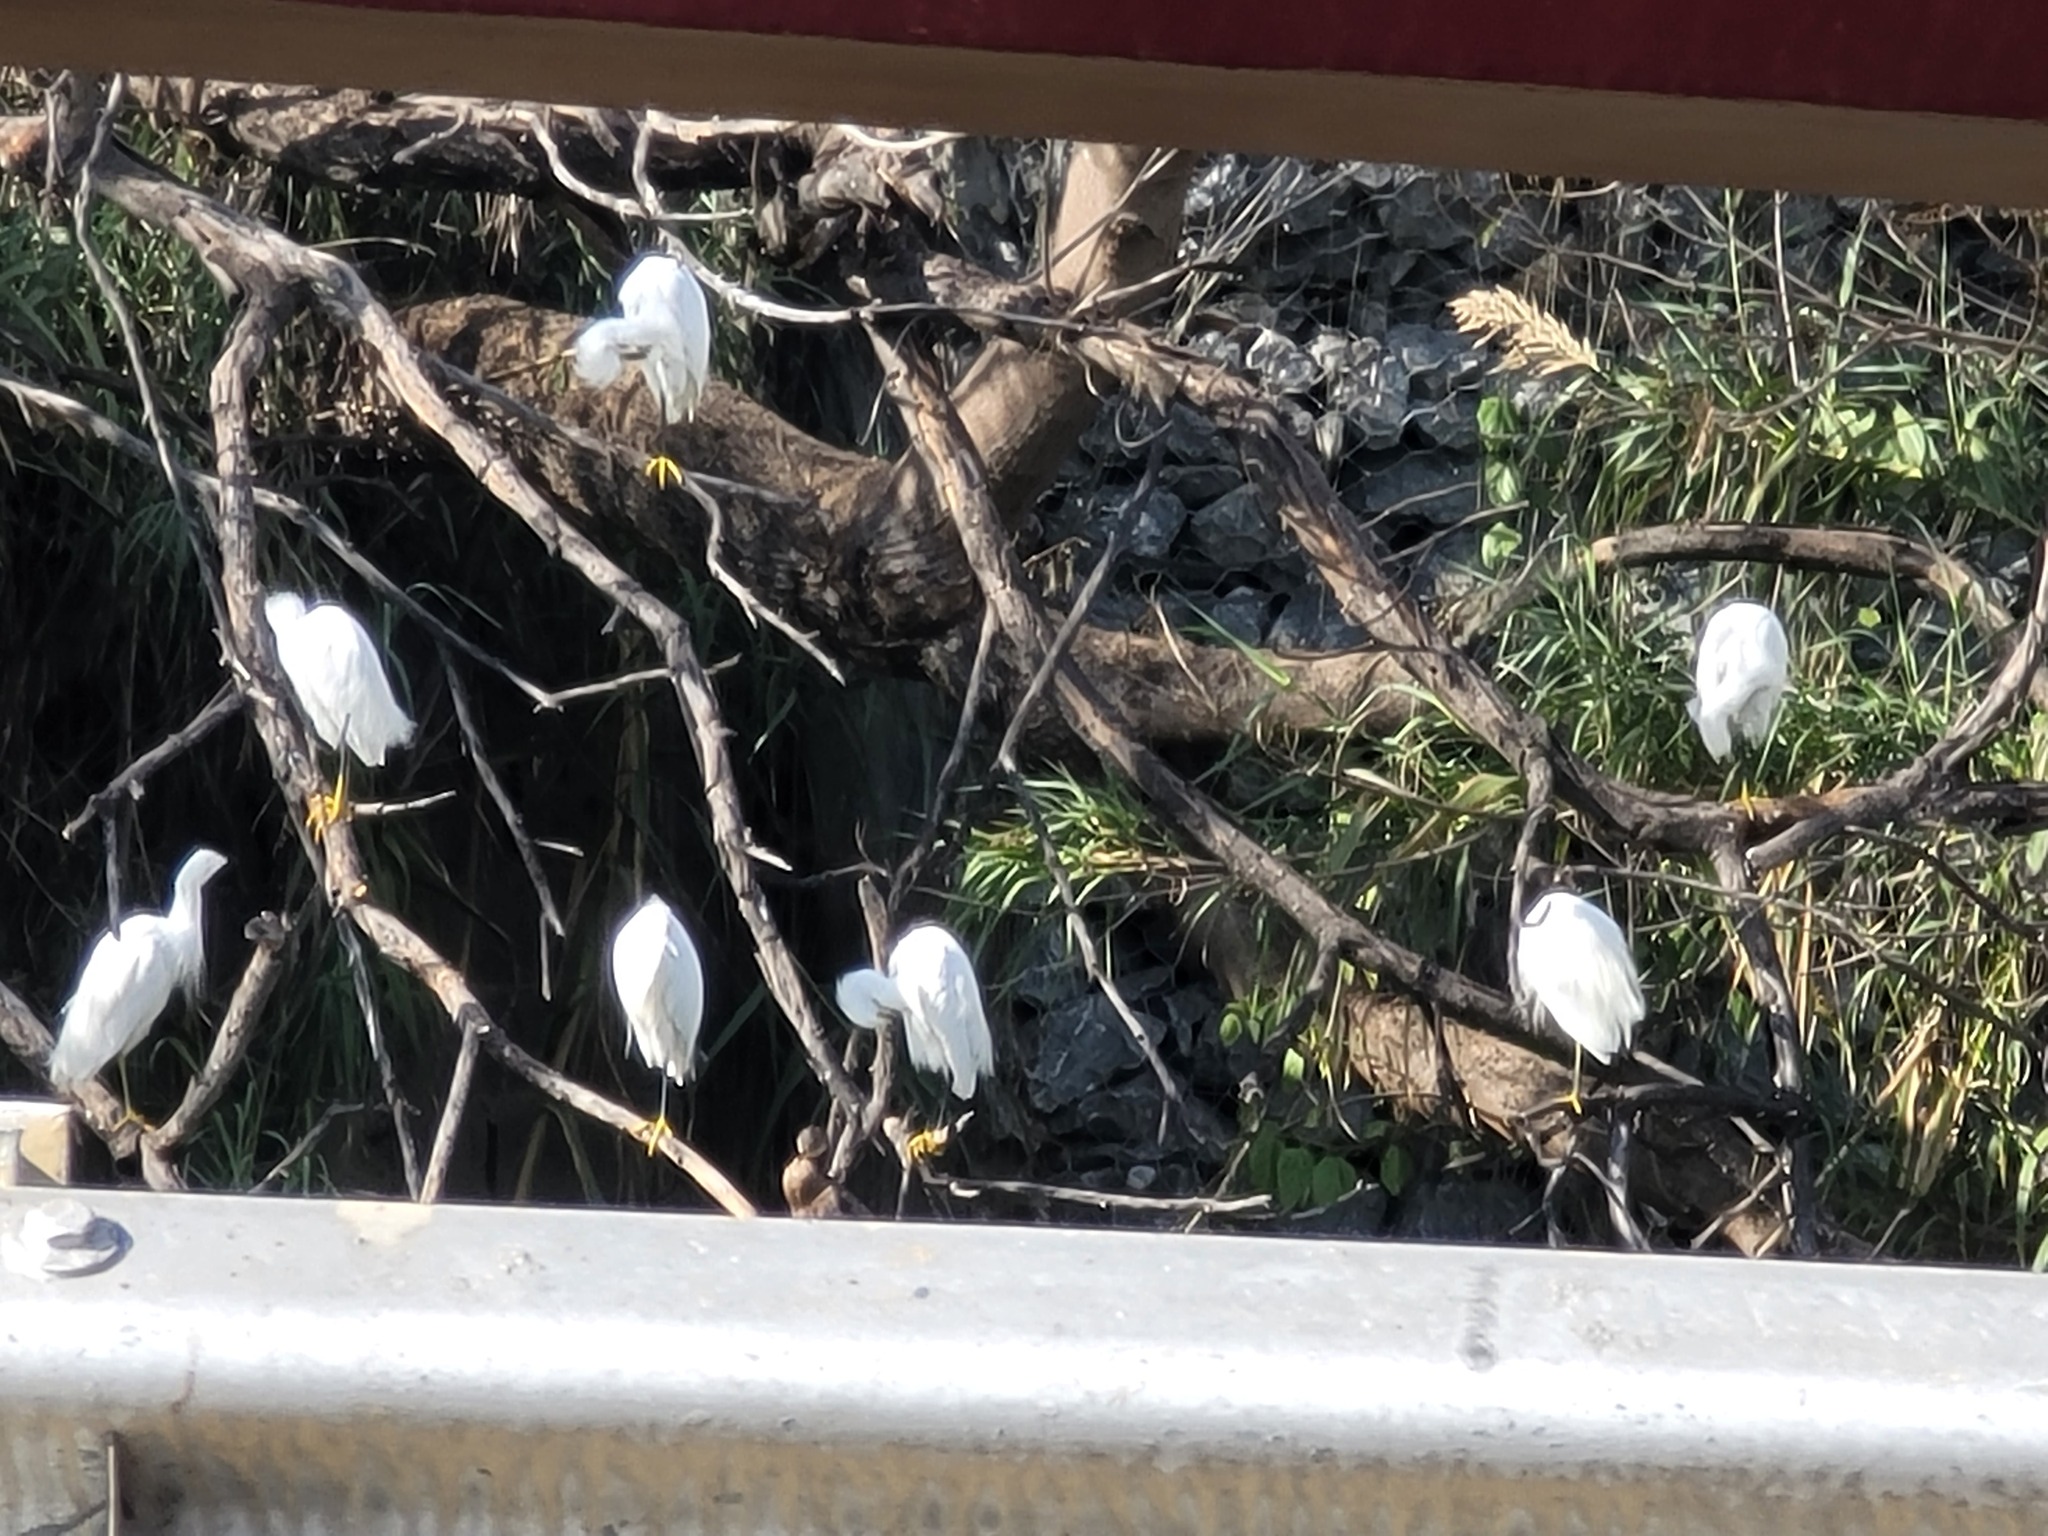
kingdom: Animalia
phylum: Chordata
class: Aves
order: Pelecaniformes
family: Ardeidae
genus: Egretta
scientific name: Egretta thula
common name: Snowy egret
